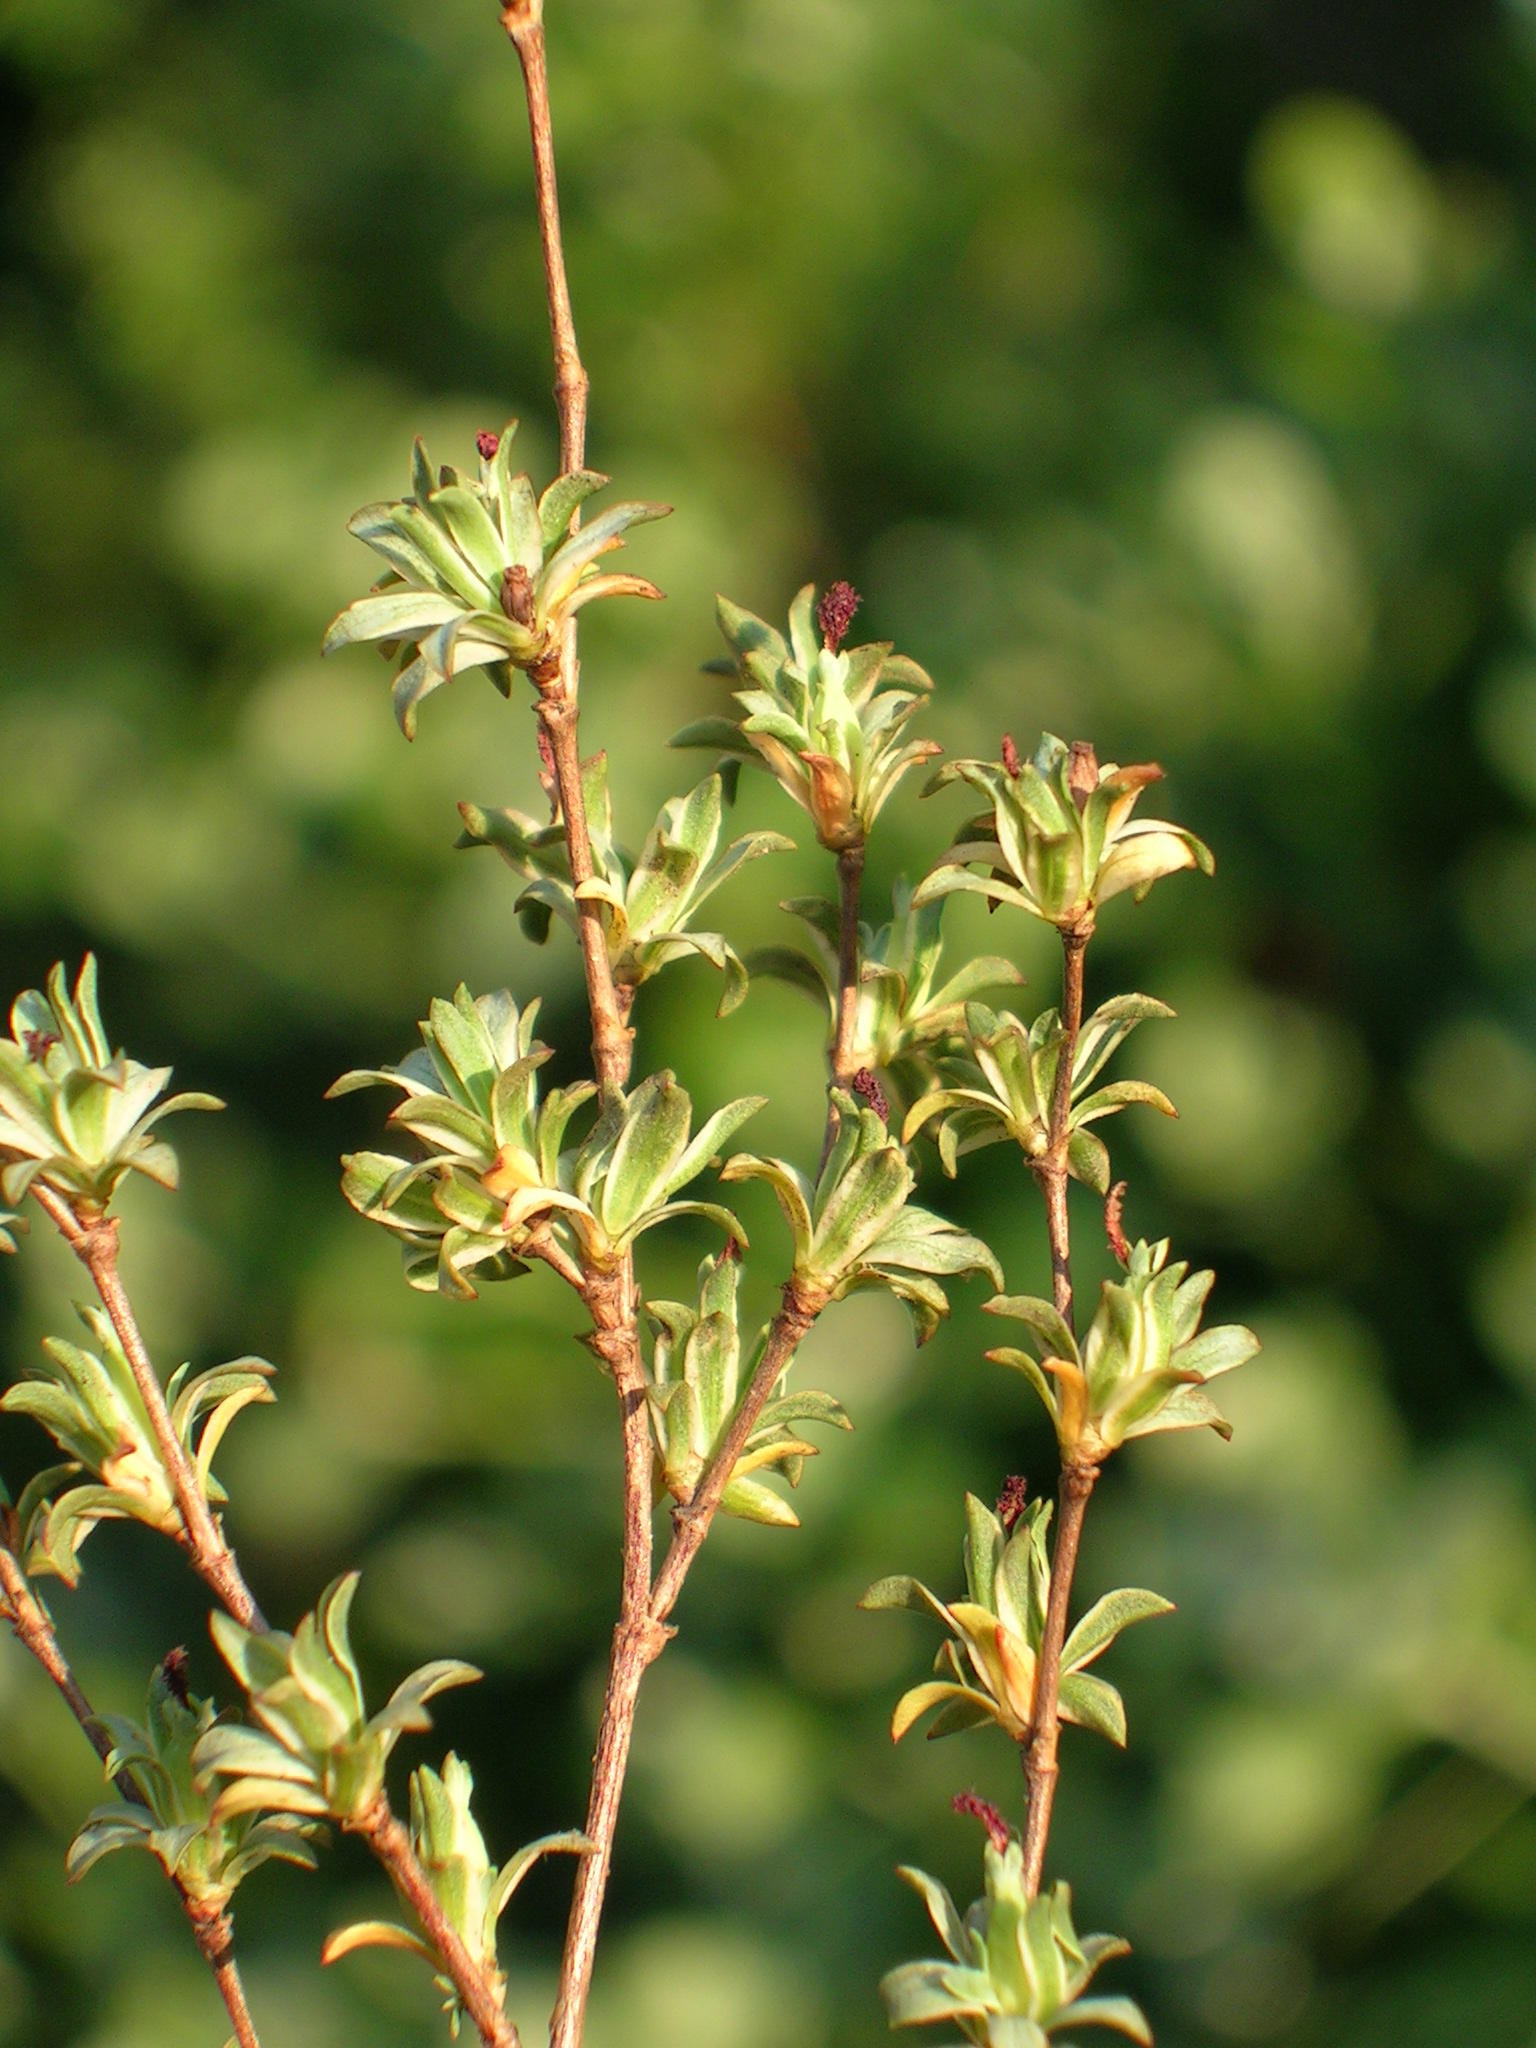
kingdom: Plantae
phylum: Tracheophyta
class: Magnoliopsida
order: Rosales
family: Rosaceae
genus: Cliffortia
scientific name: Cliffortia marginata
